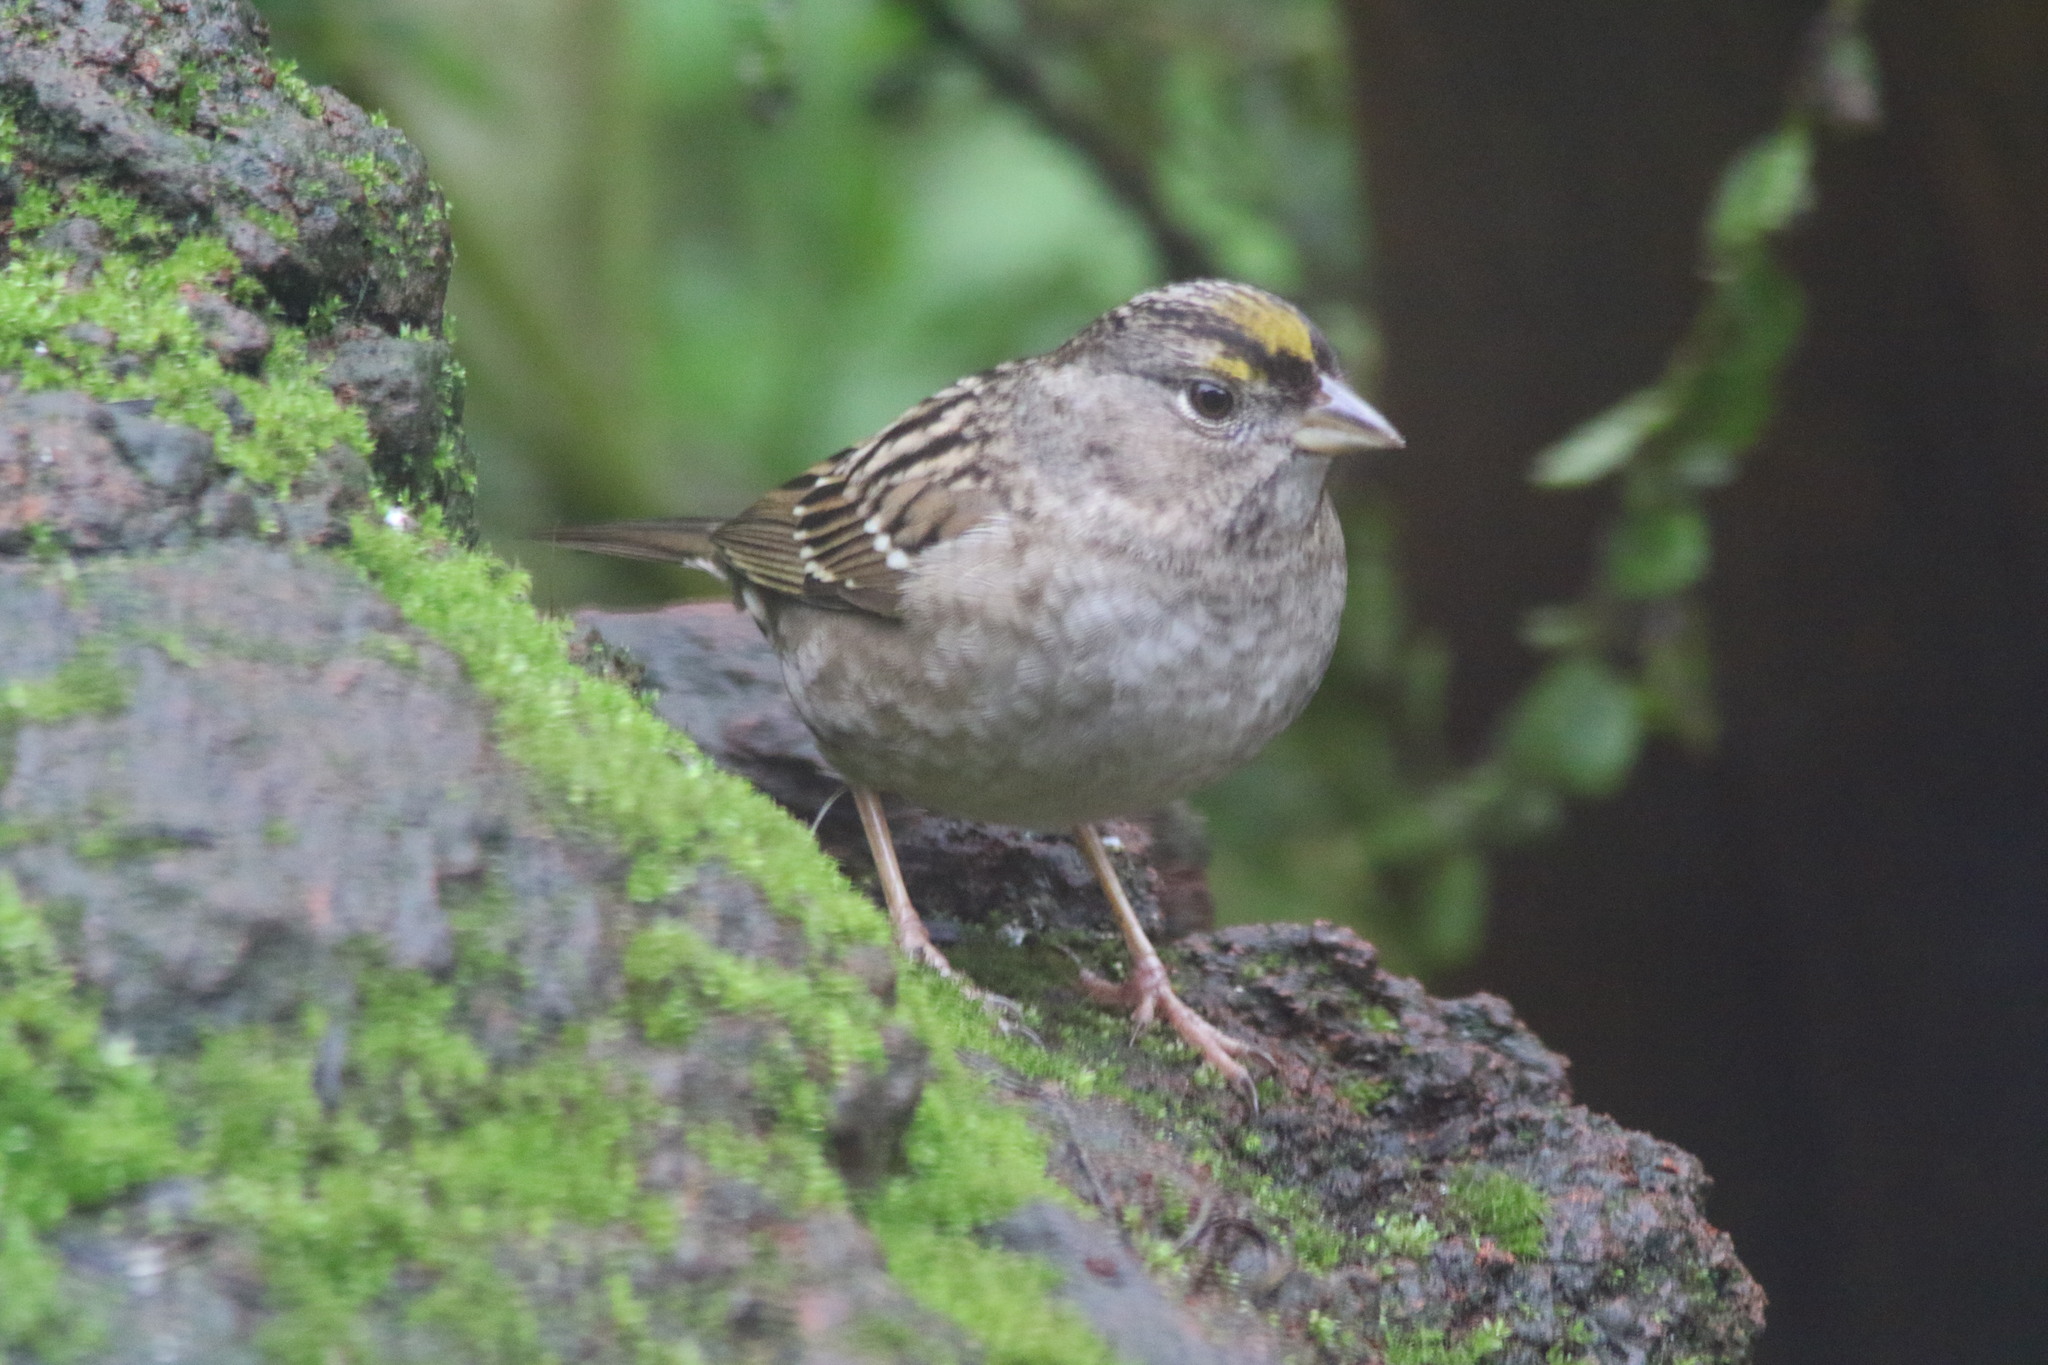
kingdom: Animalia
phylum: Chordata
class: Aves
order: Passeriformes
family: Passerellidae
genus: Zonotrichia
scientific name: Zonotrichia atricapilla
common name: Golden-crowned sparrow
